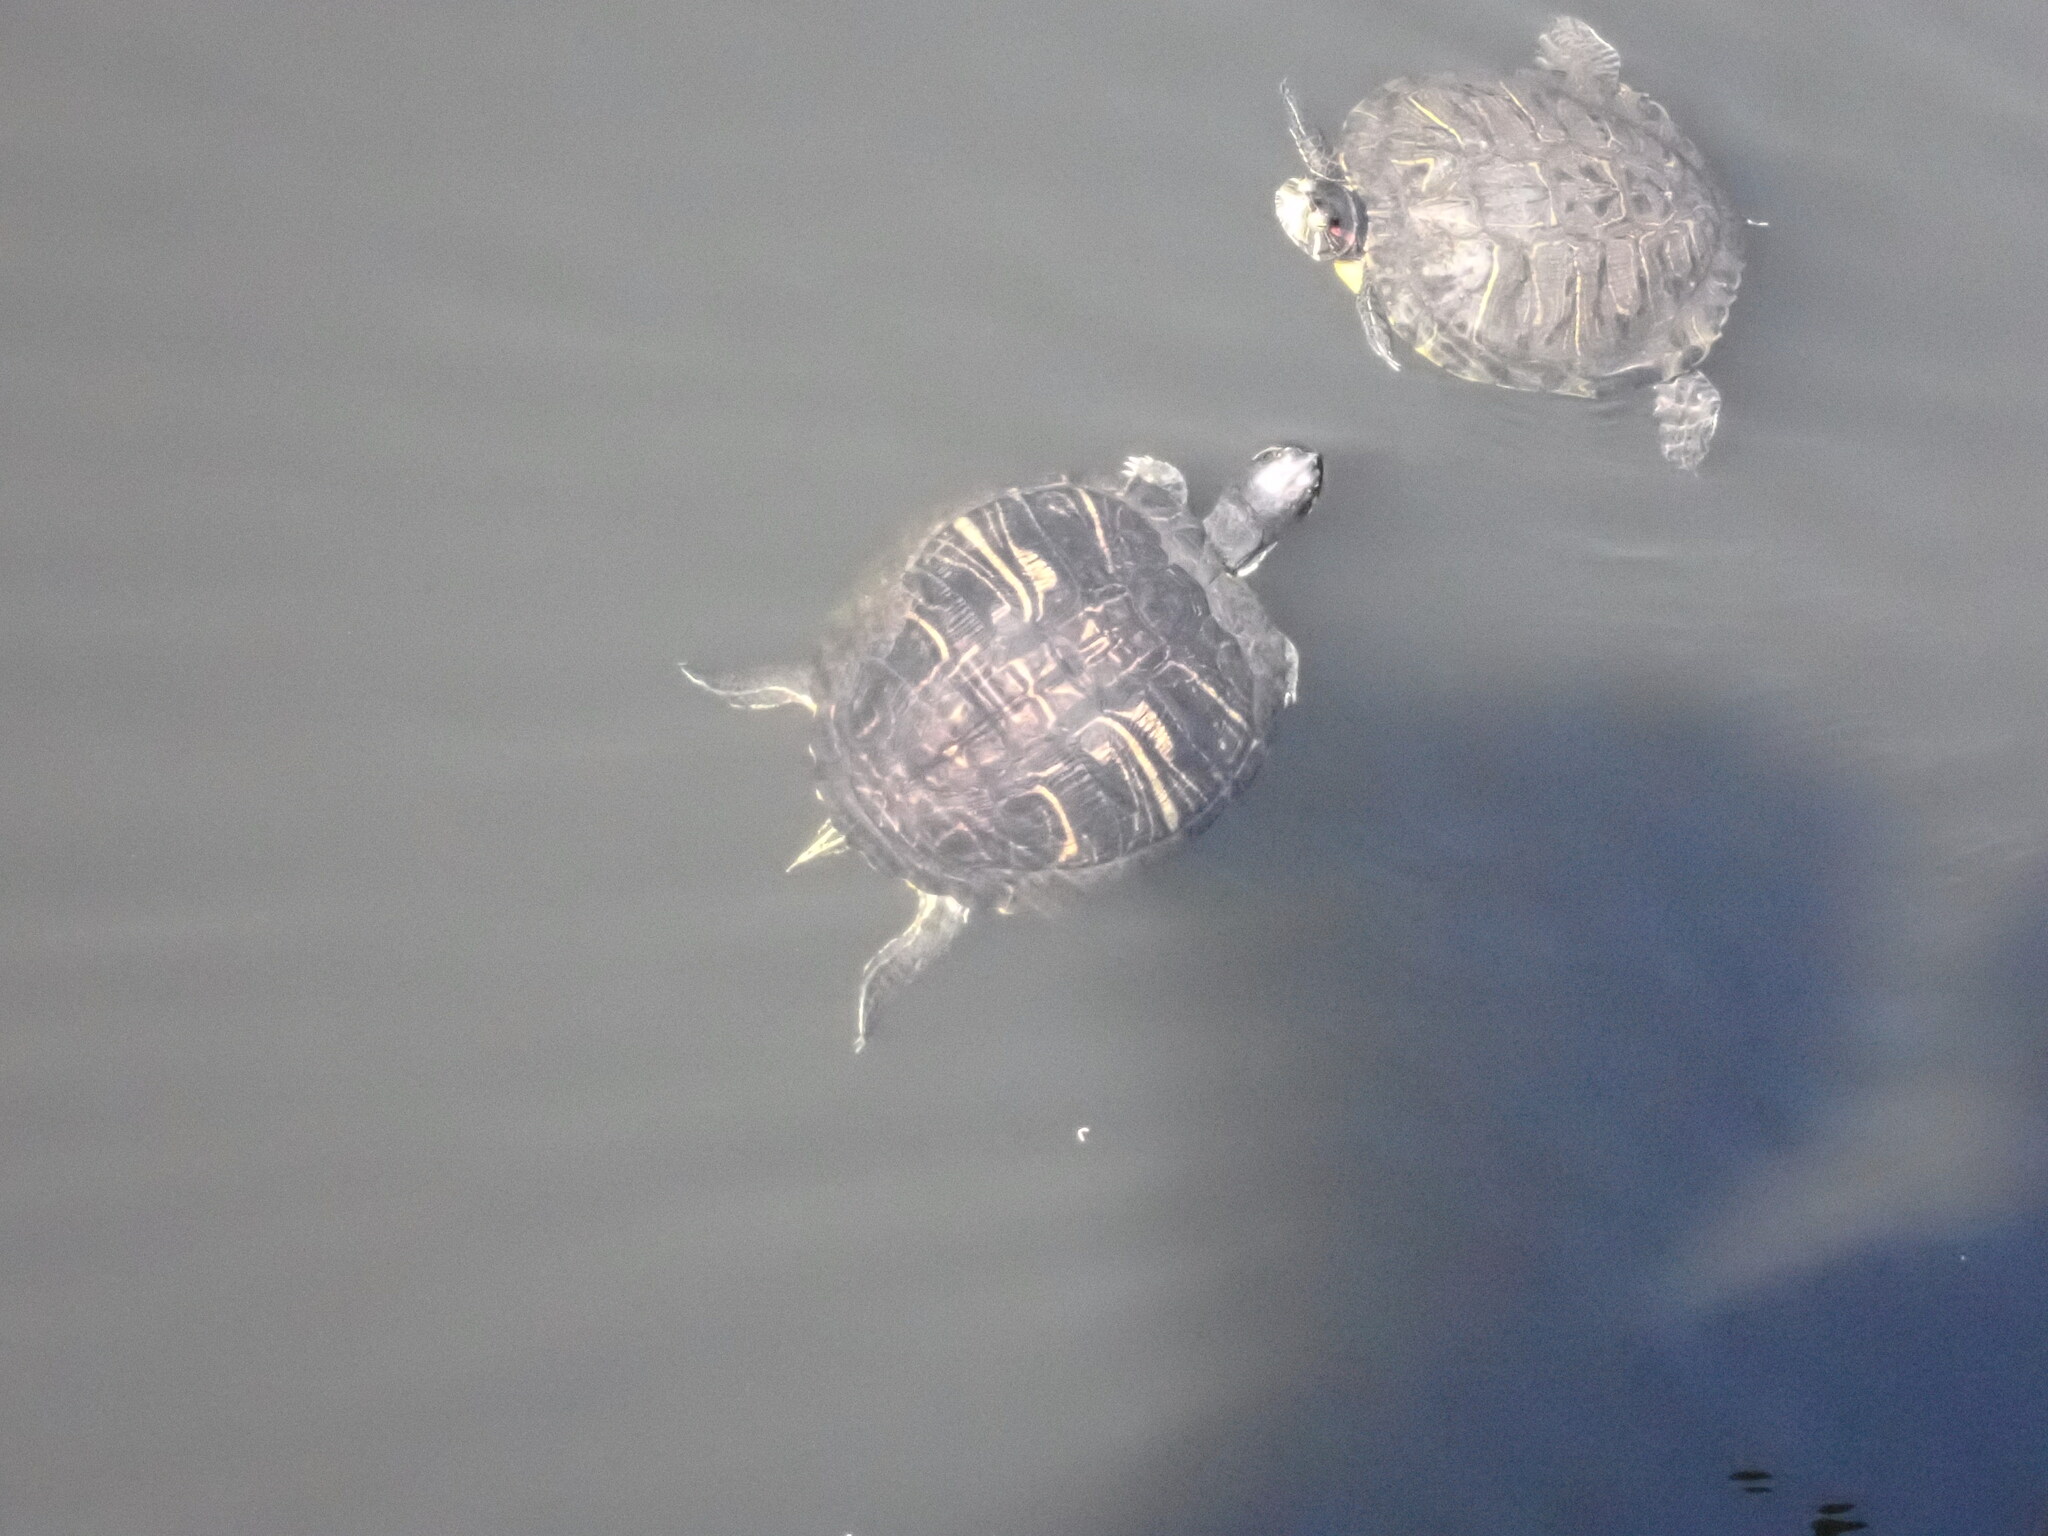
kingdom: Animalia
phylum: Chordata
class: Testudines
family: Emydidae
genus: Trachemys
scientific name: Trachemys scripta
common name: Slider
